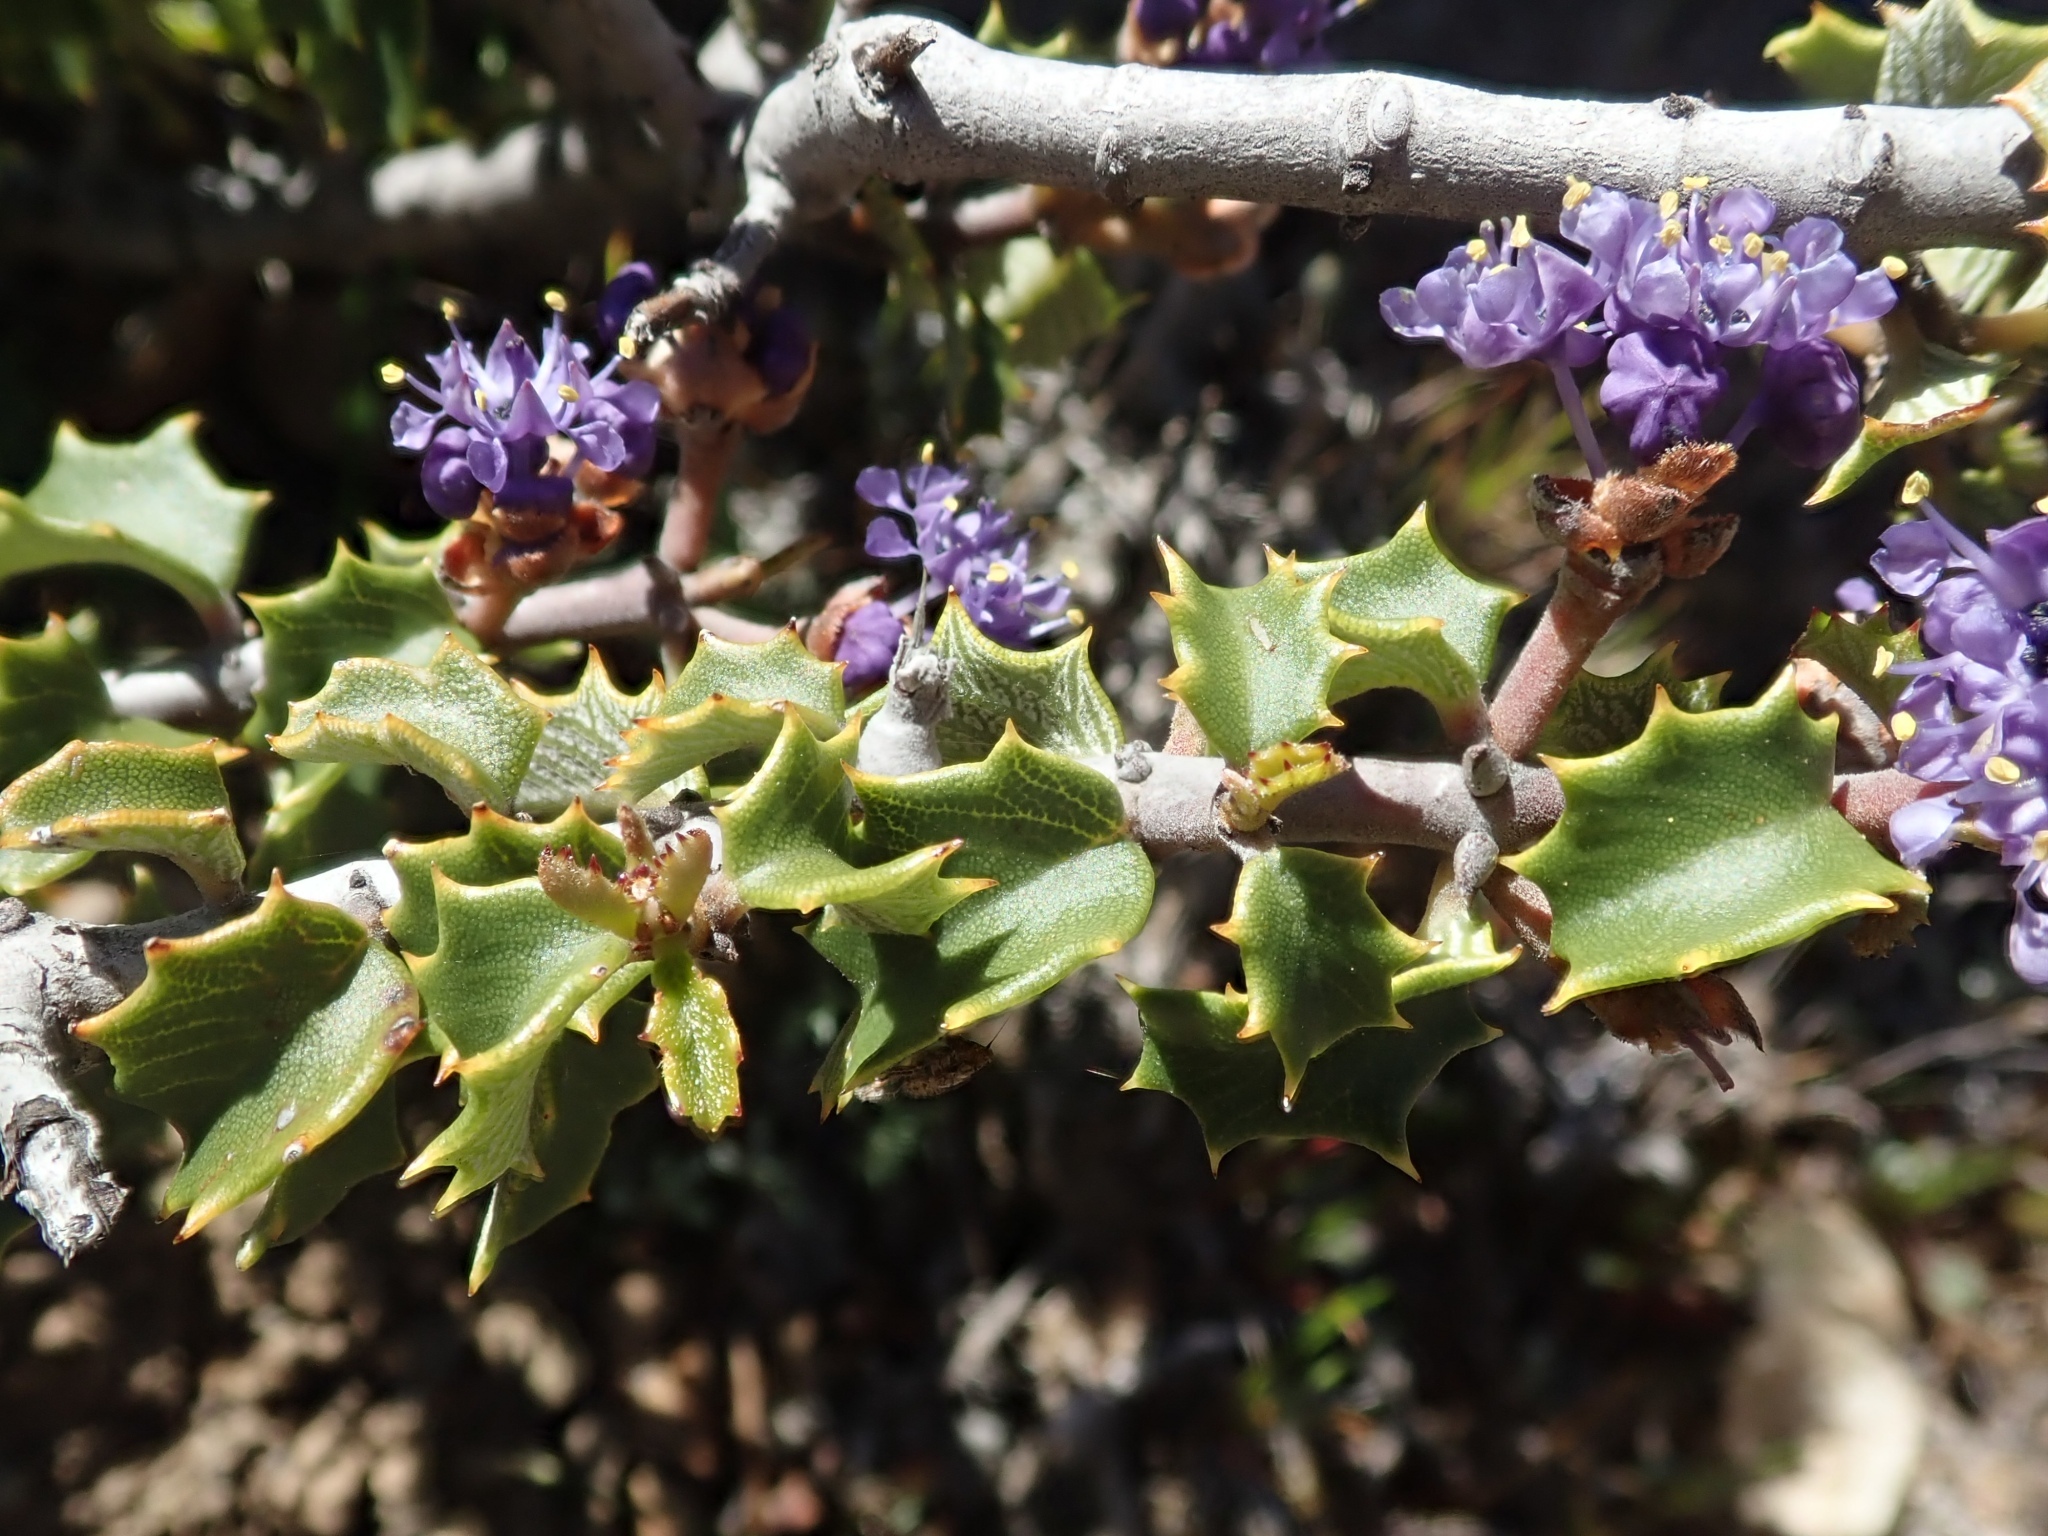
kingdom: Plantae
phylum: Tracheophyta
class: Magnoliopsida
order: Rosales
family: Rhamnaceae
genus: Ceanothus
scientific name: Ceanothus jepsonii
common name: Muskbrush
